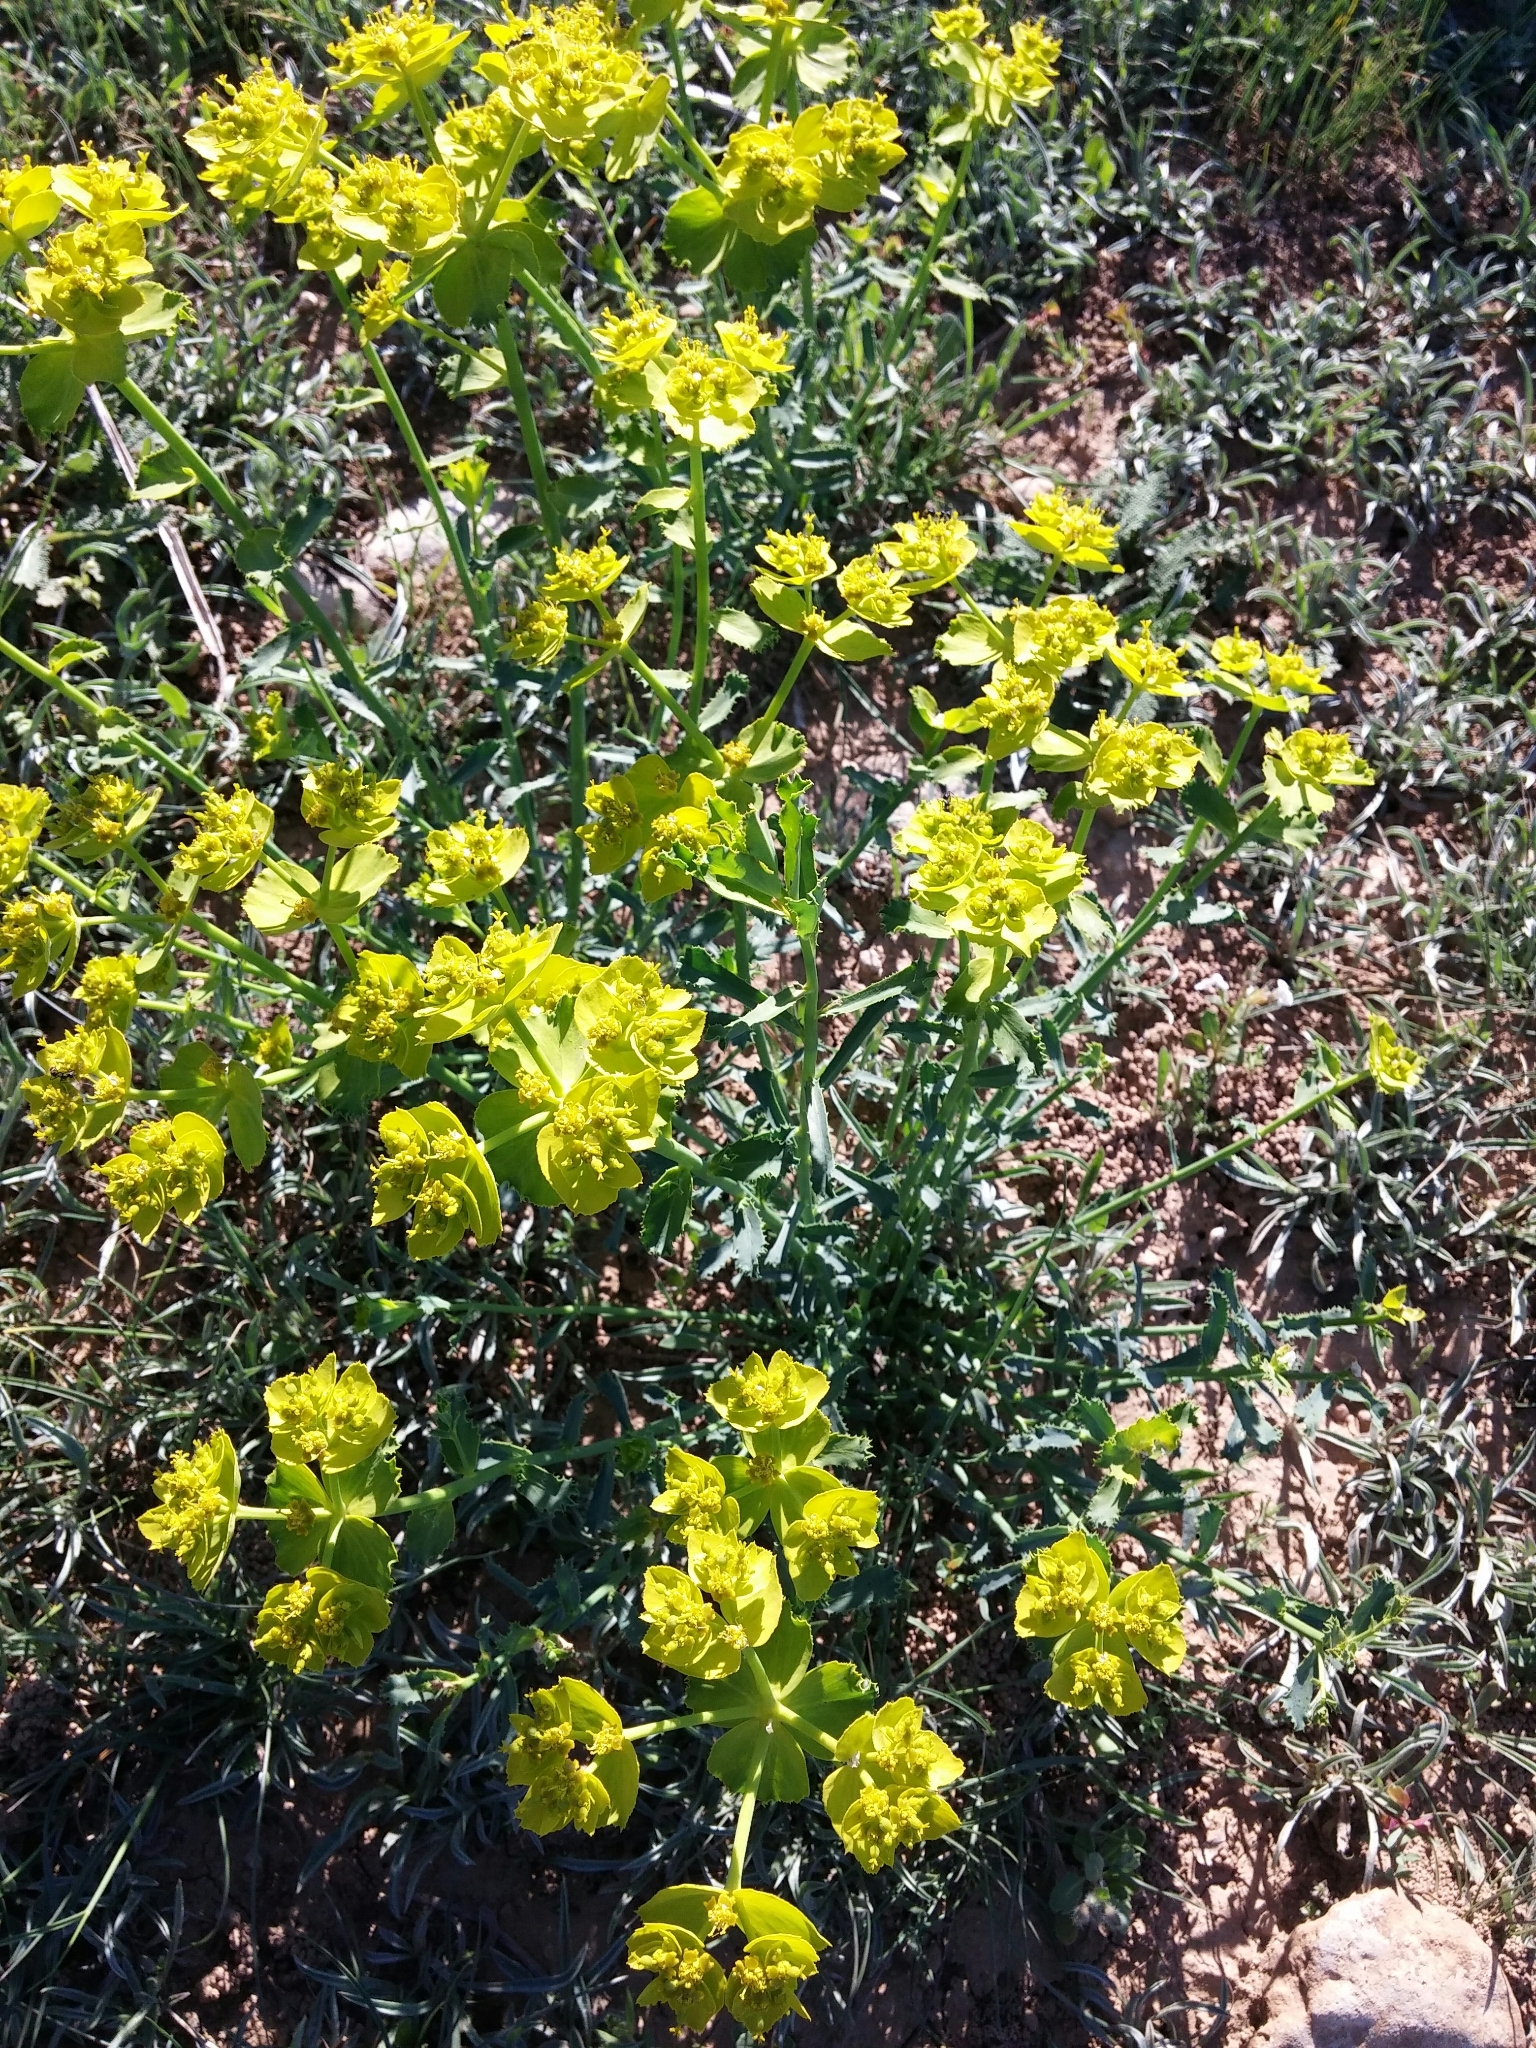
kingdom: Plantae
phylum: Tracheophyta
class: Magnoliopsida
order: Malpighiales
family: Euphorbiaceae
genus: Euphorbia
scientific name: Euphorbia serrata
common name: Serrate spurge
